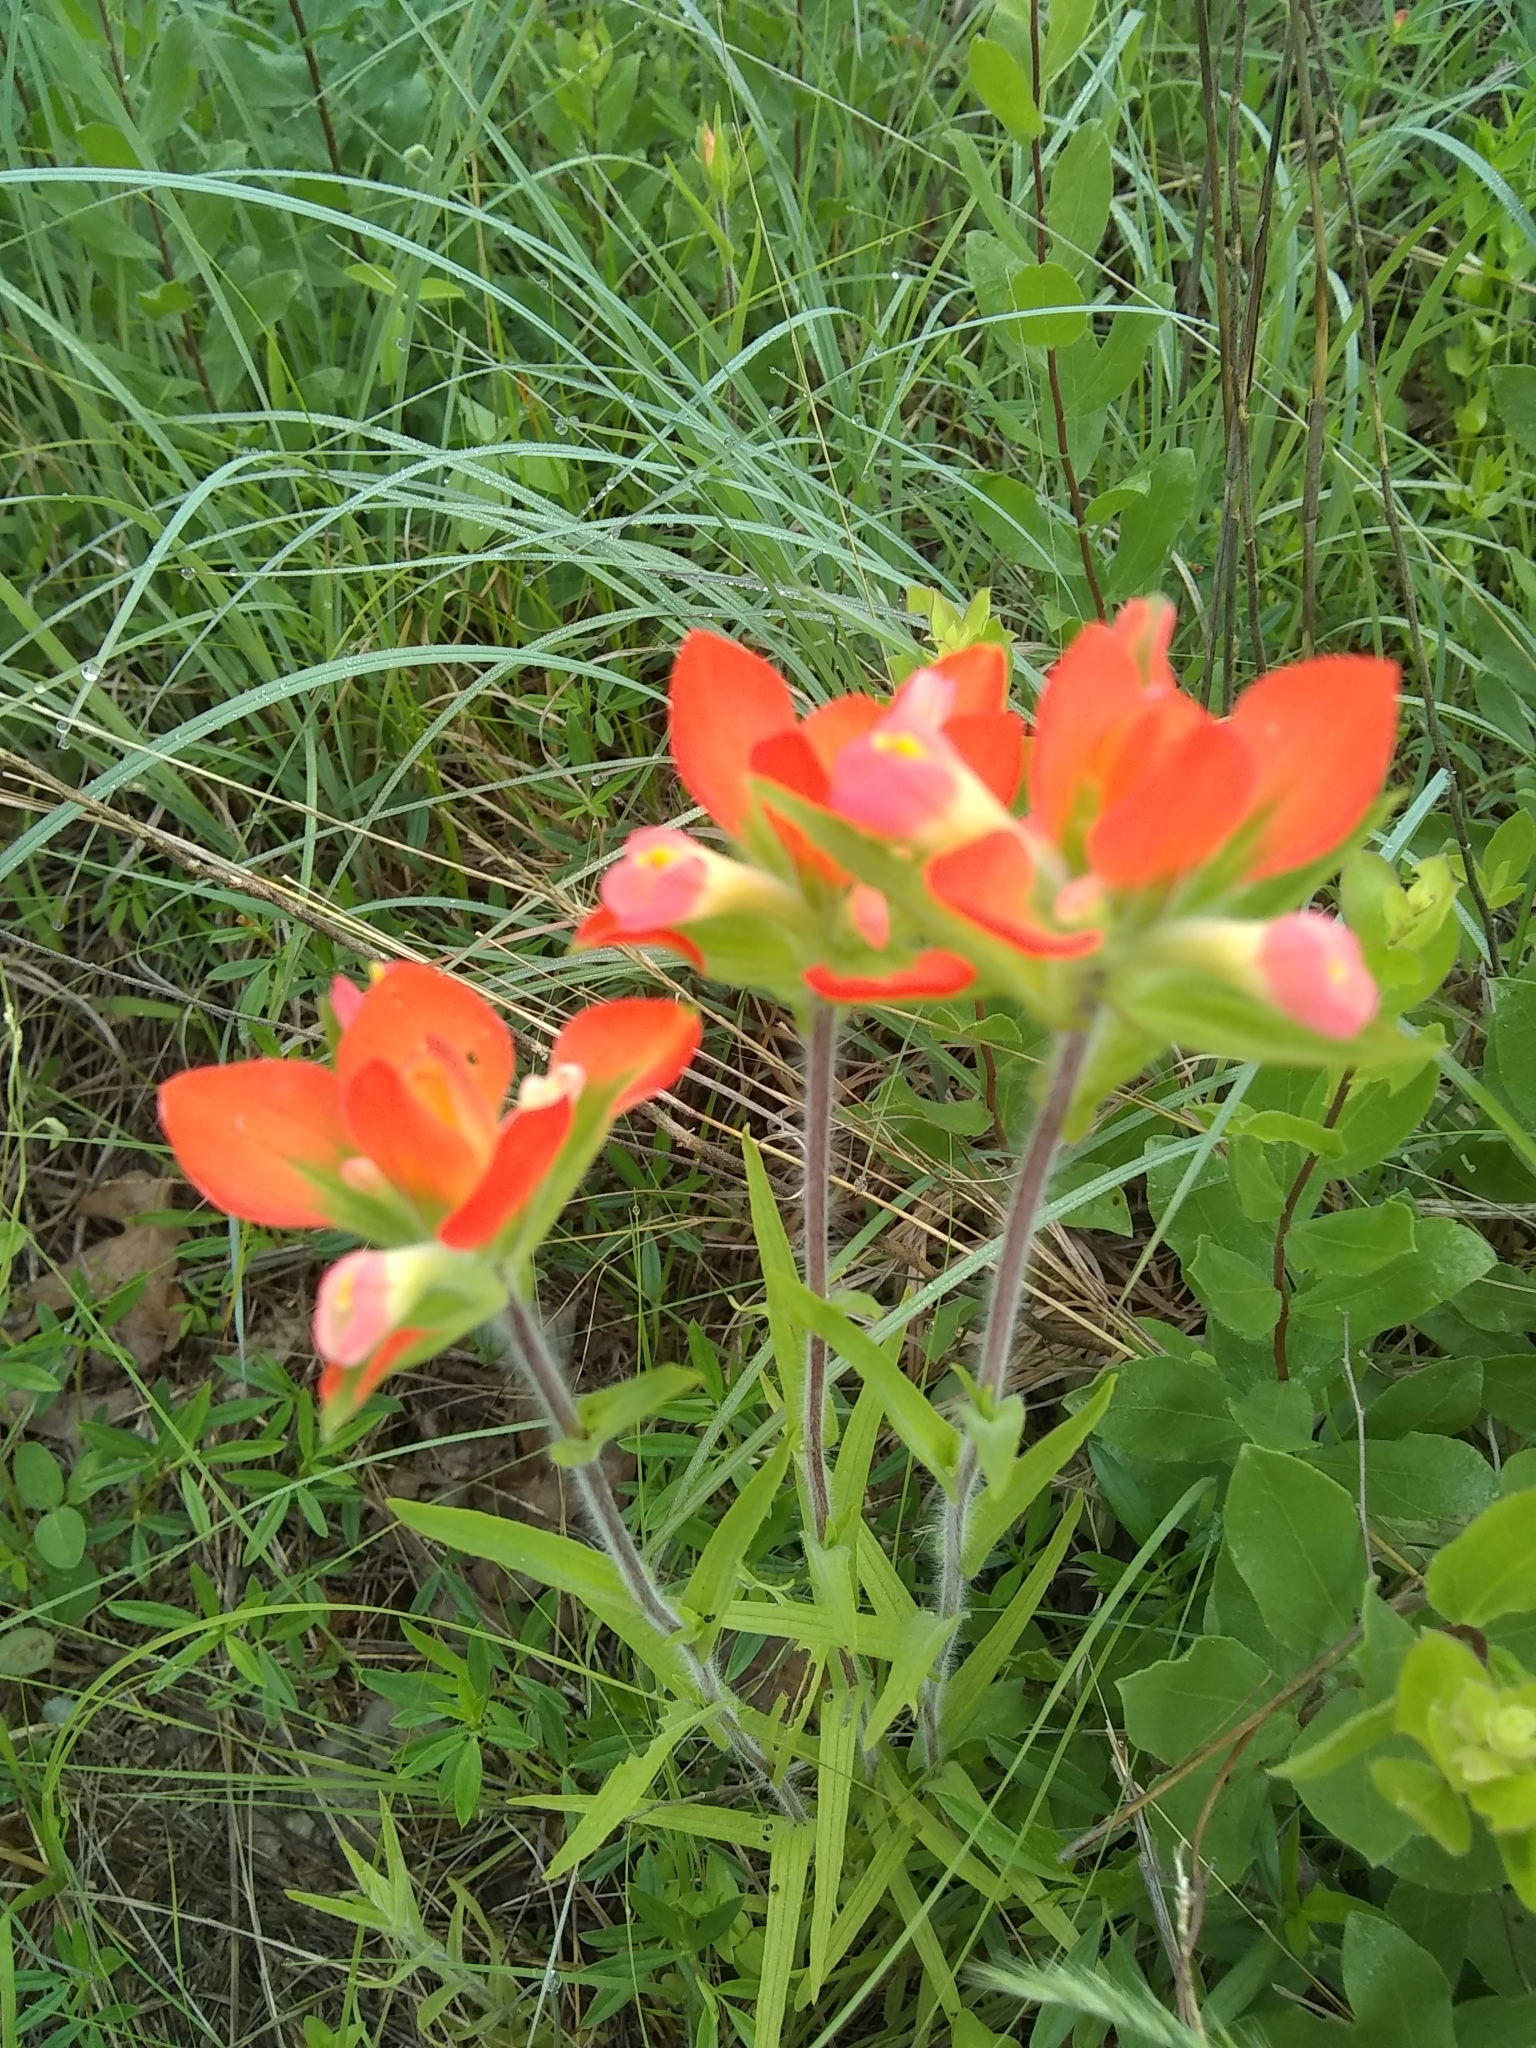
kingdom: Plantae
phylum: Tracheophyta
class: Magnoliopsida
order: Lamiales
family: Orobanchaceae
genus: Castilleja
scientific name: Castilleja indivisa
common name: Texas paintbrush
